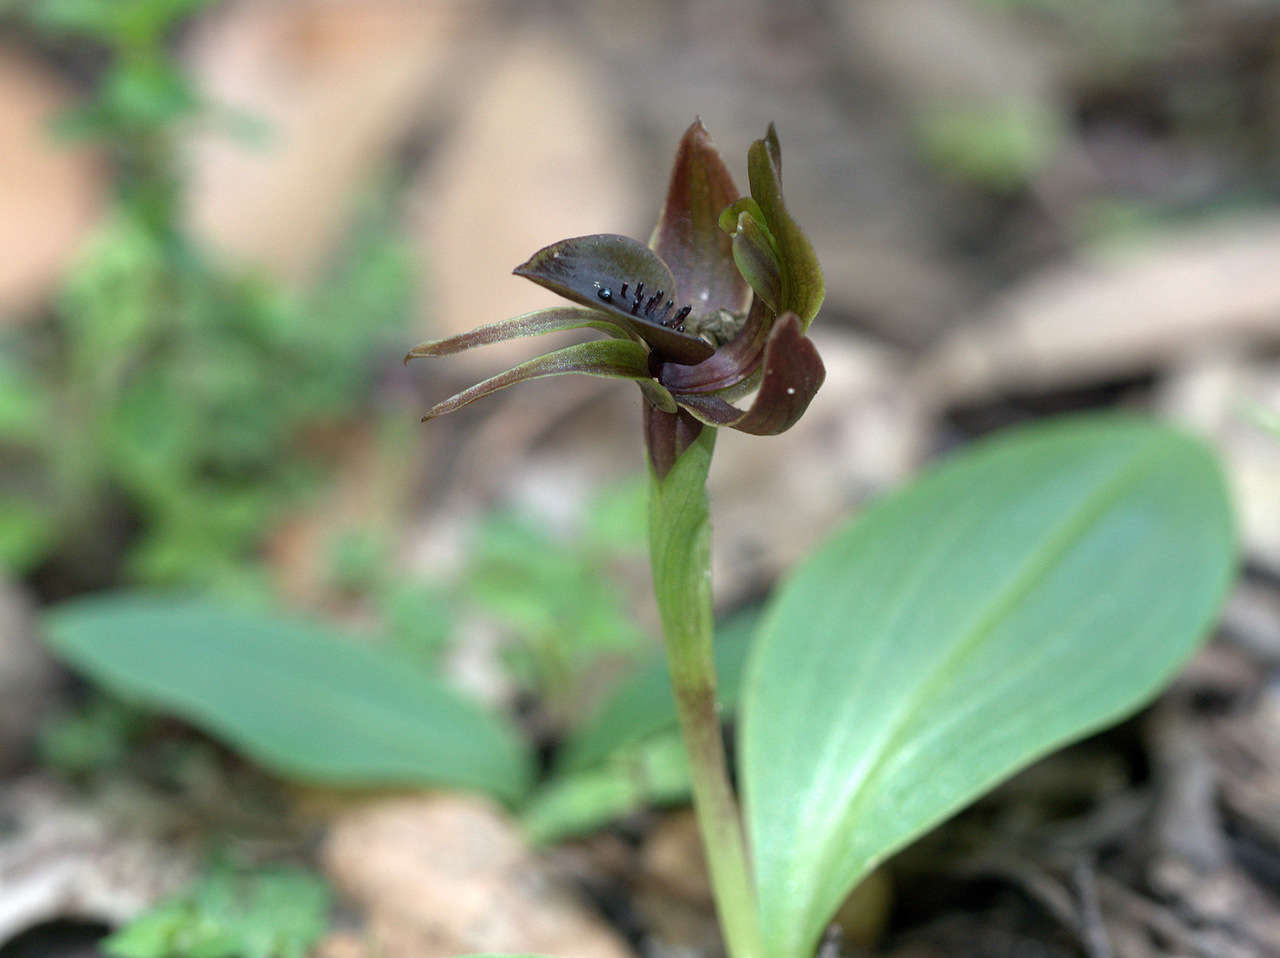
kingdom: Plantae
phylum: Tracheophyta
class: Liliopsida
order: Asparagales
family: Orchidaceae
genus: Chiloglottis
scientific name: Chiloglottis valida
